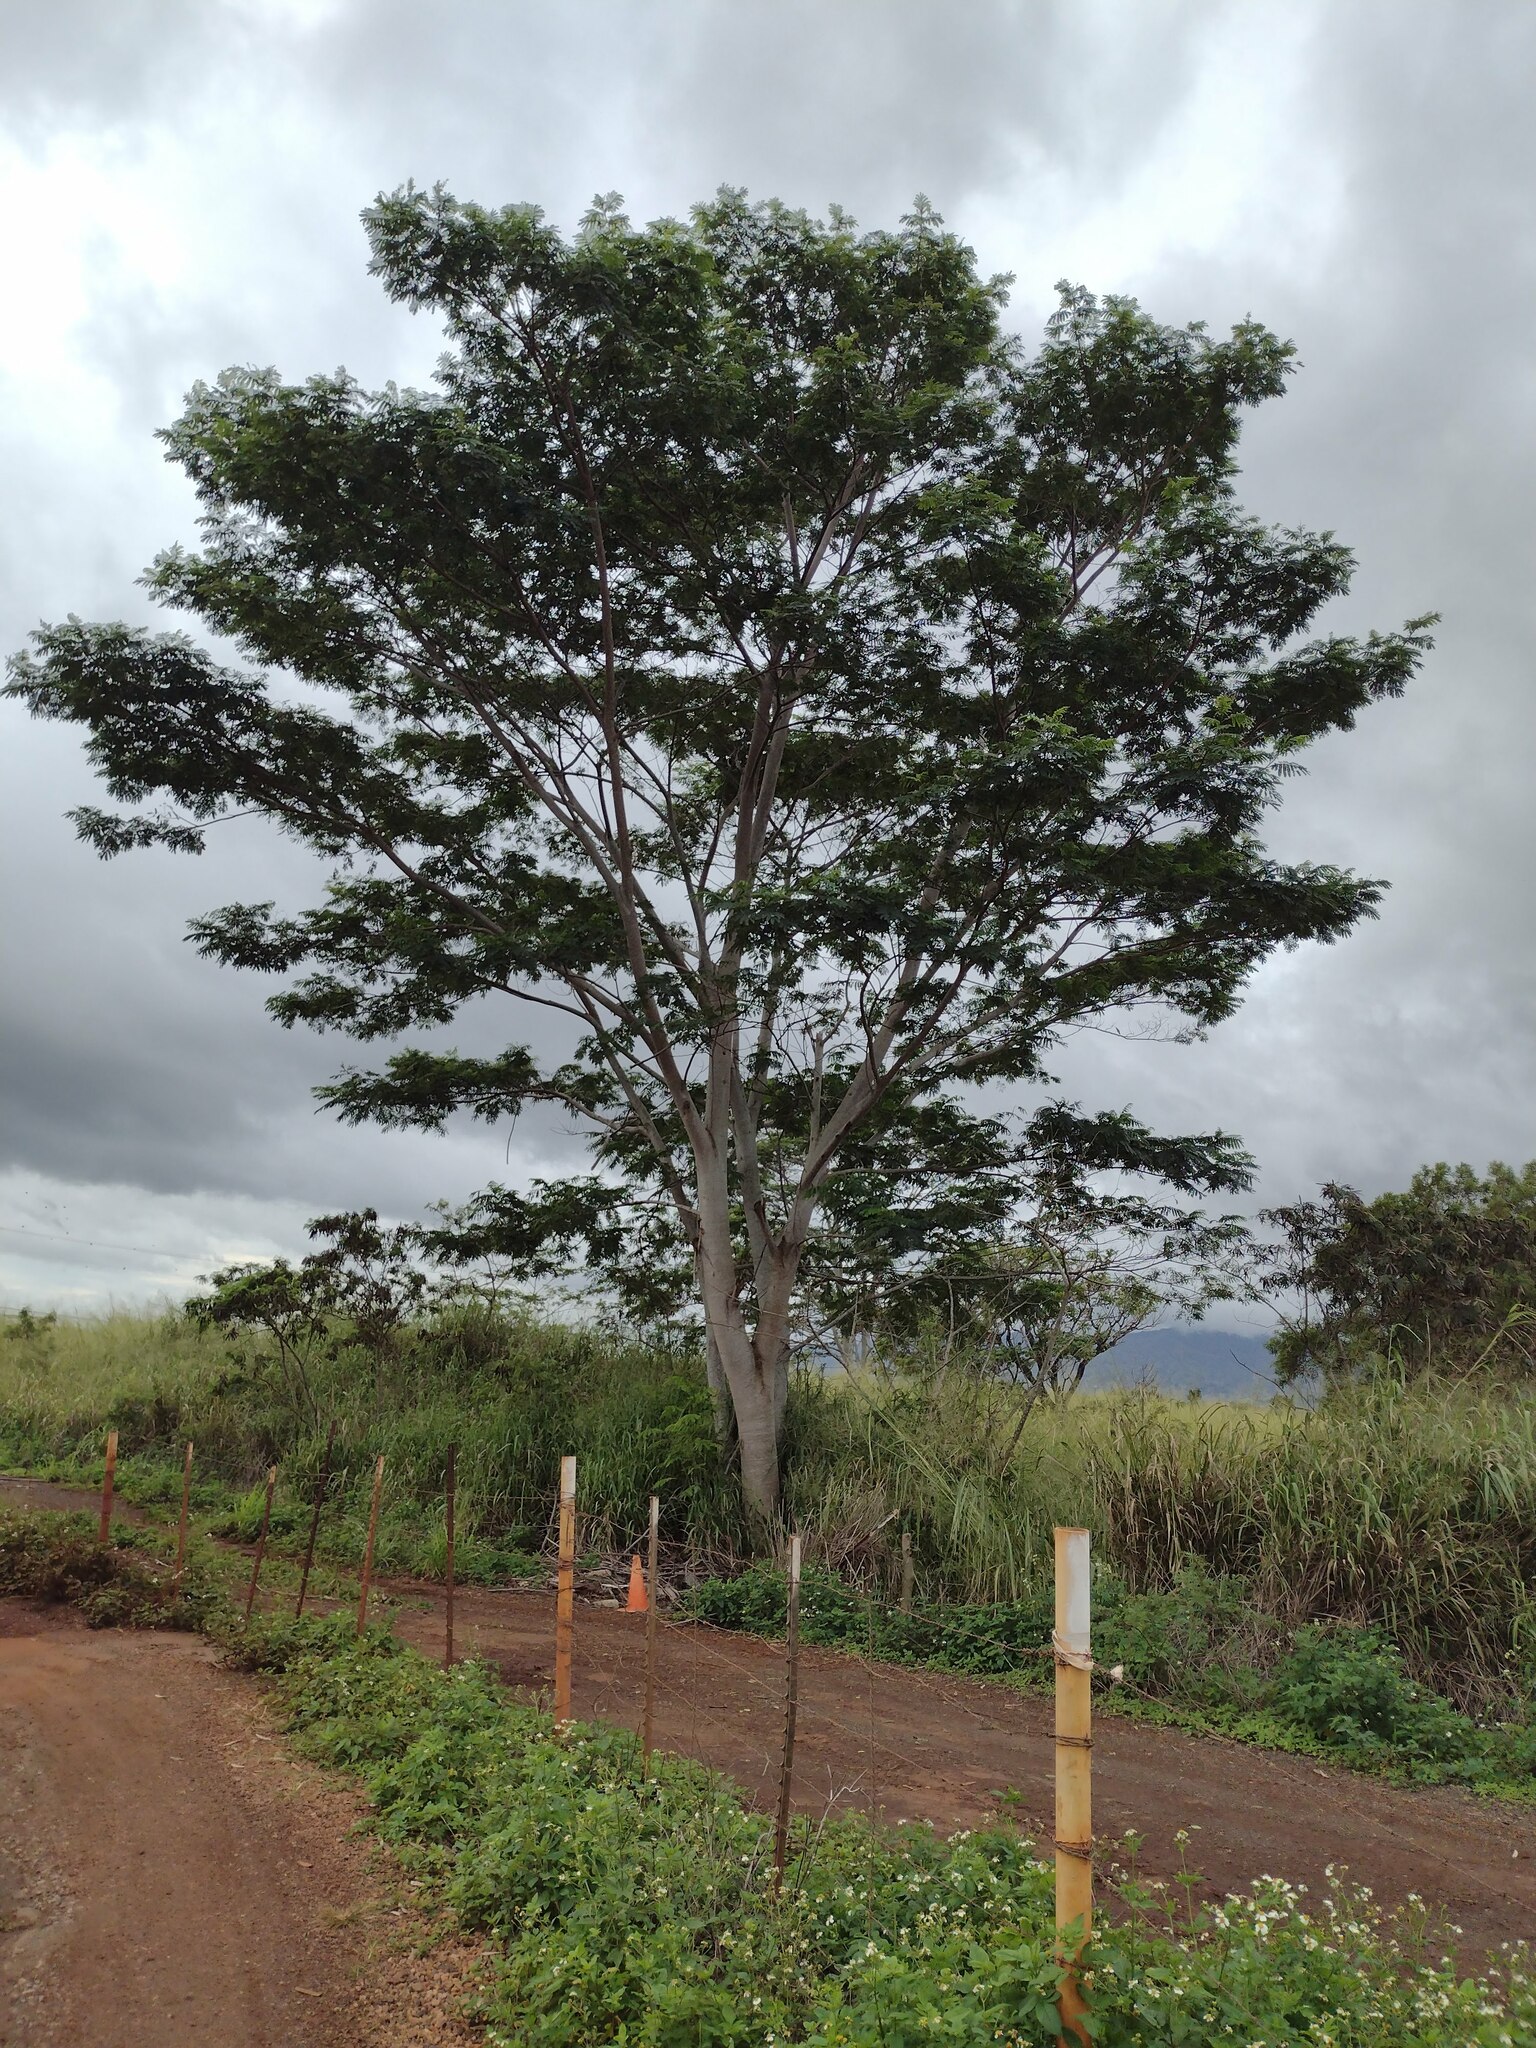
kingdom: Plantae
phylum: Tracheophyta
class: Magnoliopsida
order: Fabales
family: Fabaceae
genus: Falcataria
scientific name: Falcataria falcata
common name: Moluccan albizia
